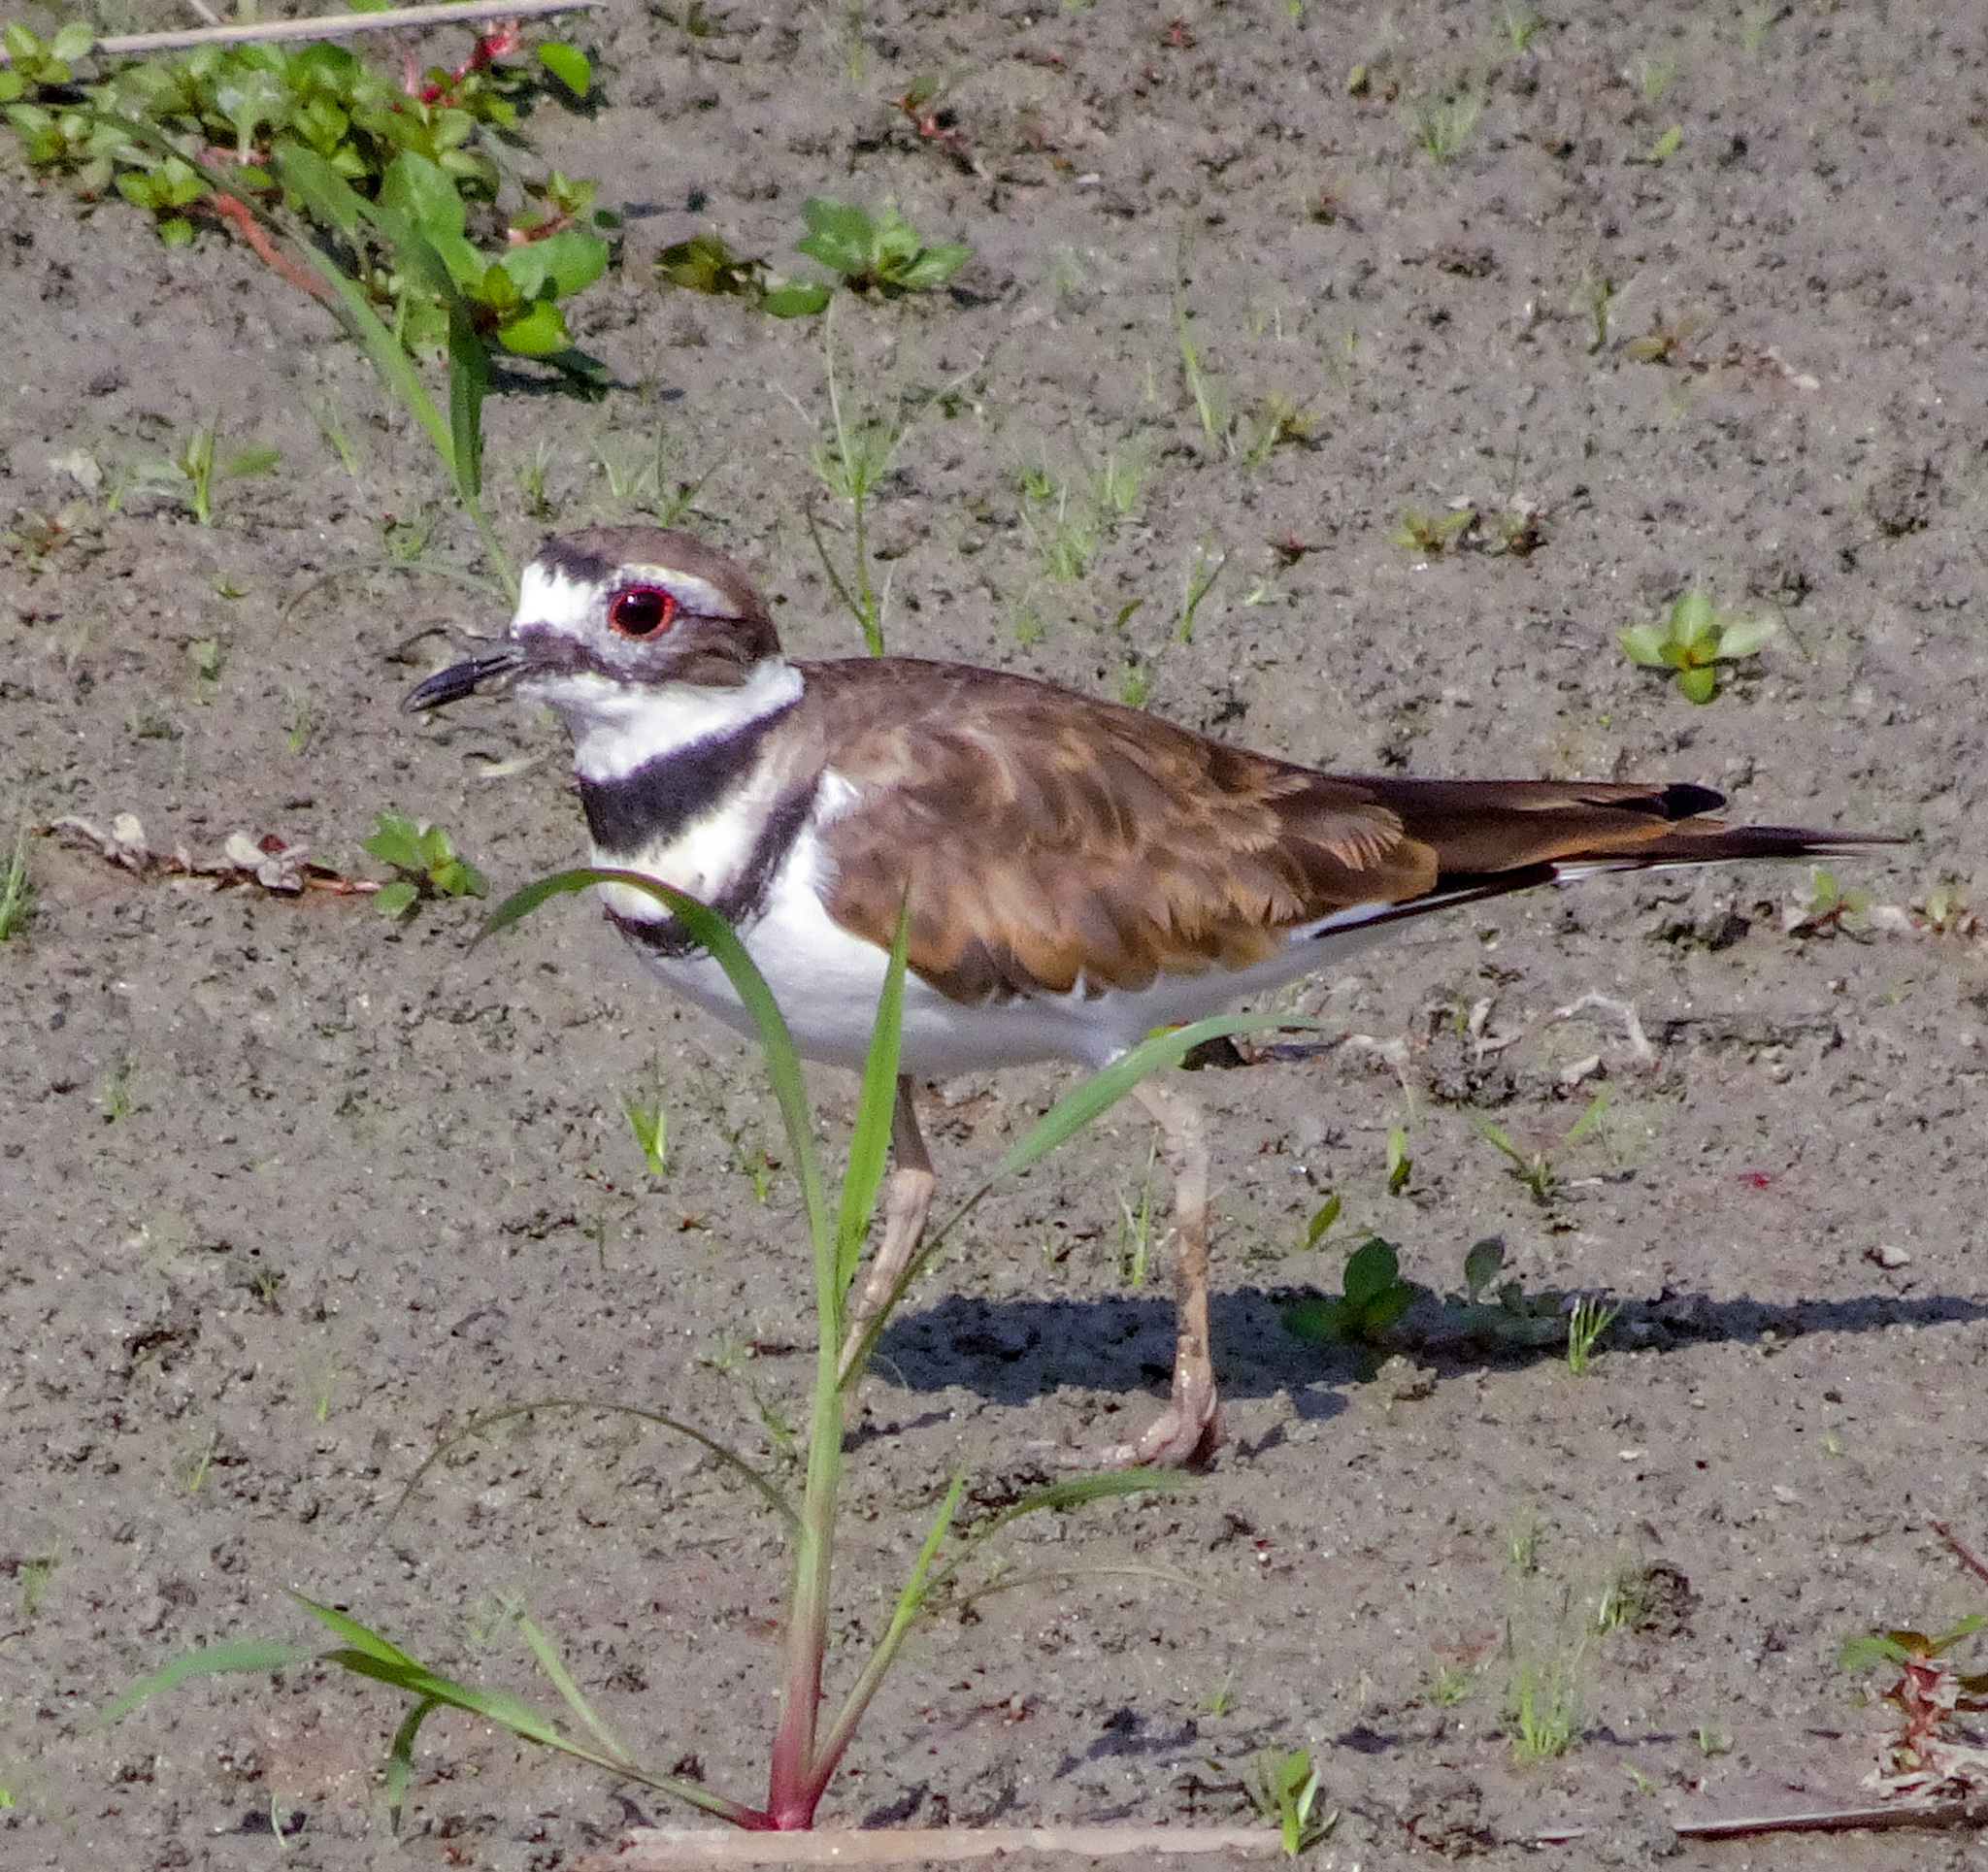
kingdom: Animalia
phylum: Chordata
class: Aves
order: Charadriiformes
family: Charadriidae
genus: Charadrius
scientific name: Charadrius vociferus
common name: Killdeer
